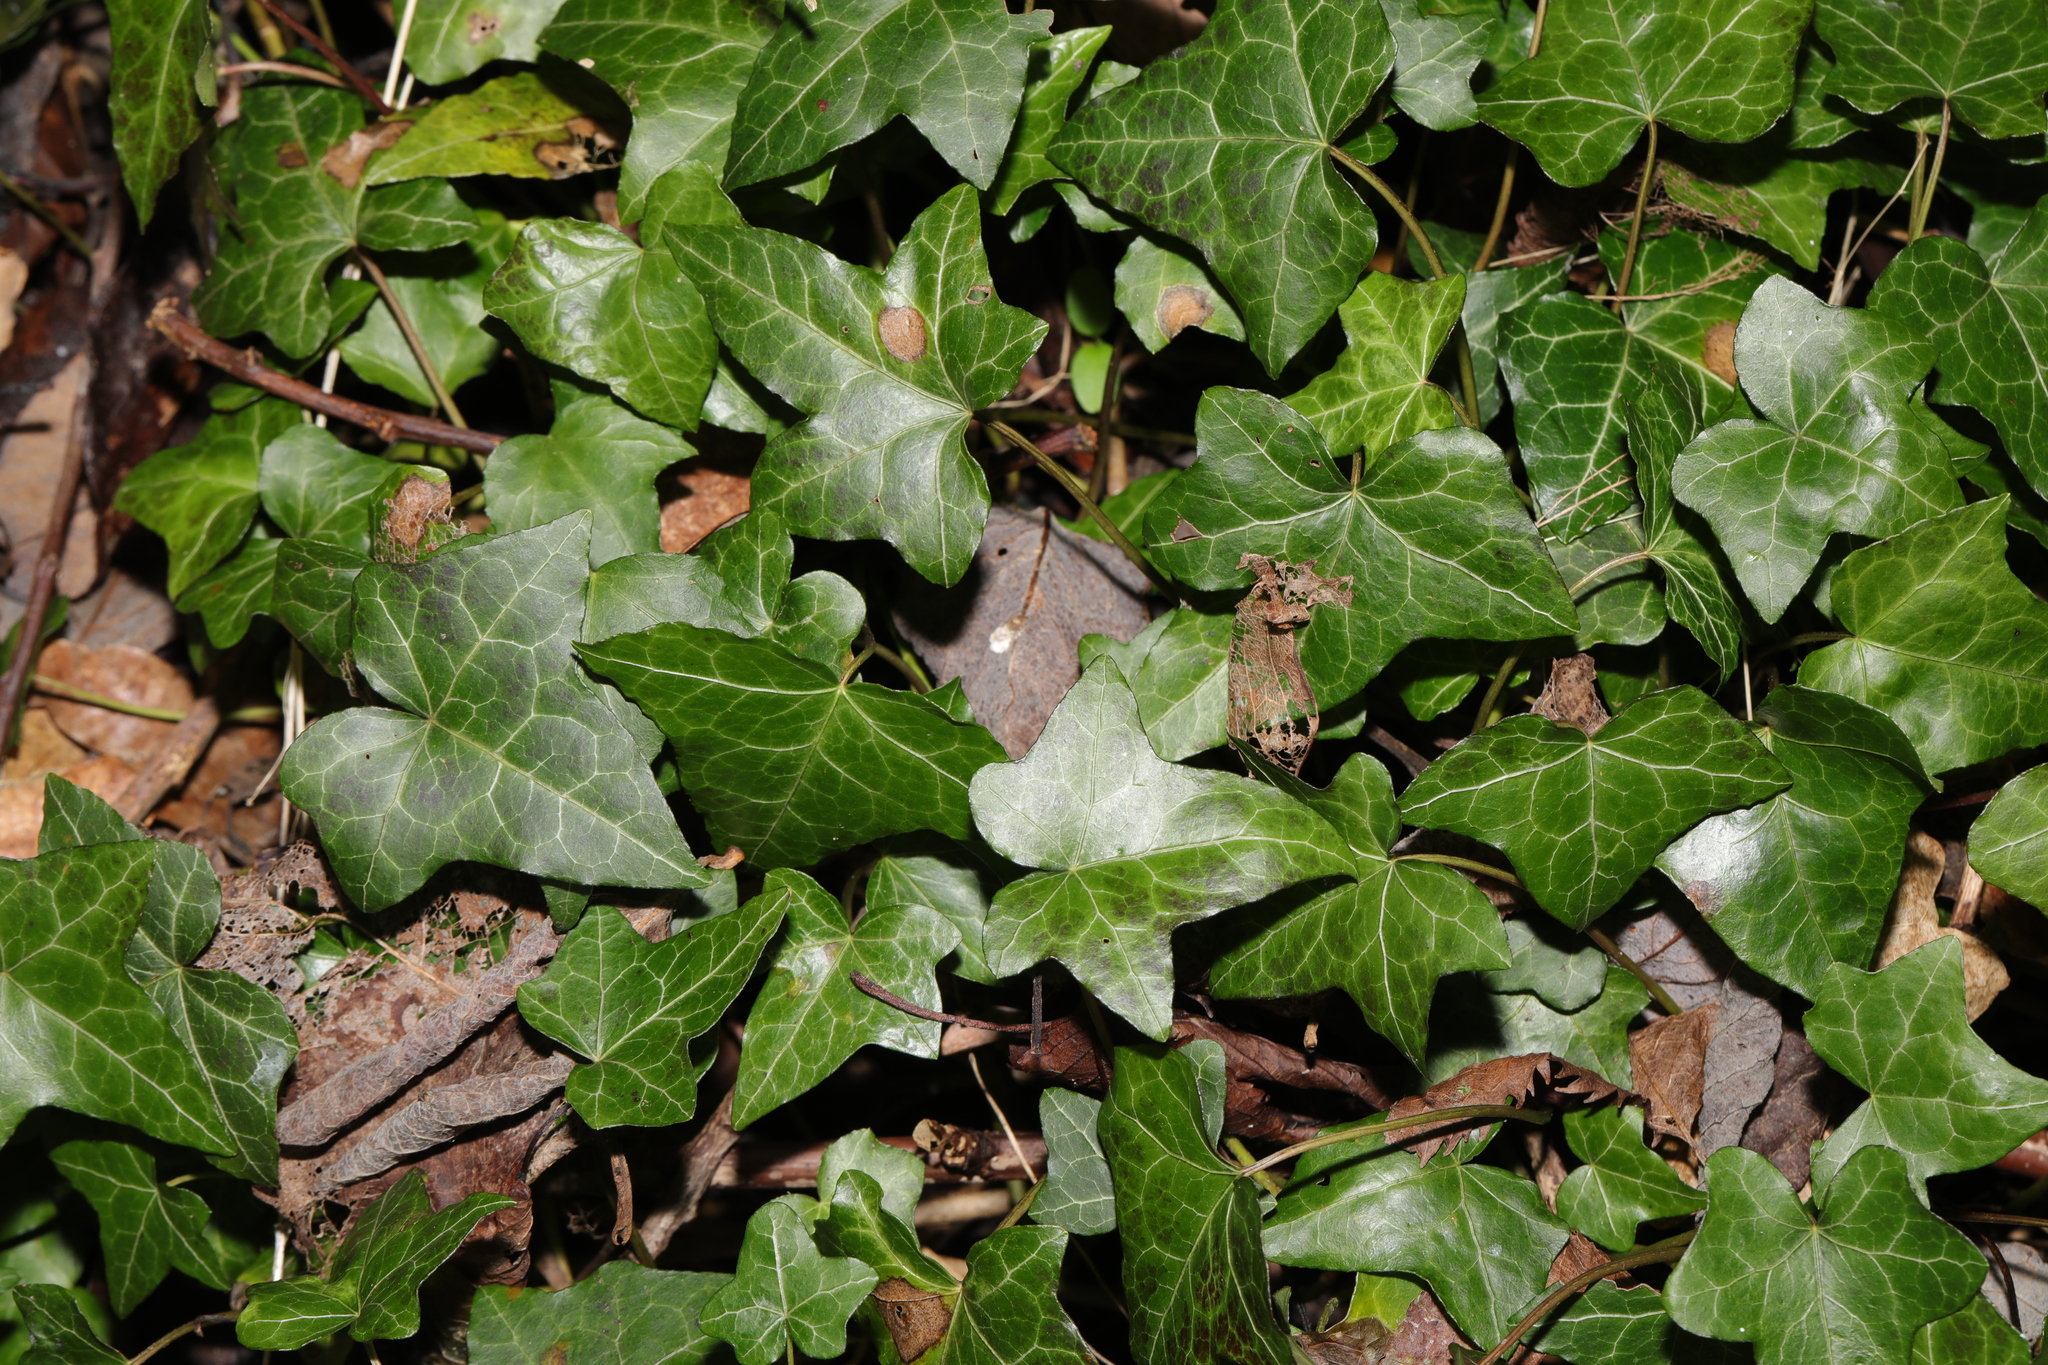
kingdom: Plantae
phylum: Tracheophyta
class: Magnoliopsida
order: Apiales
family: Araliaceae
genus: Hedera
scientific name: Hedera helix
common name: Ivy
